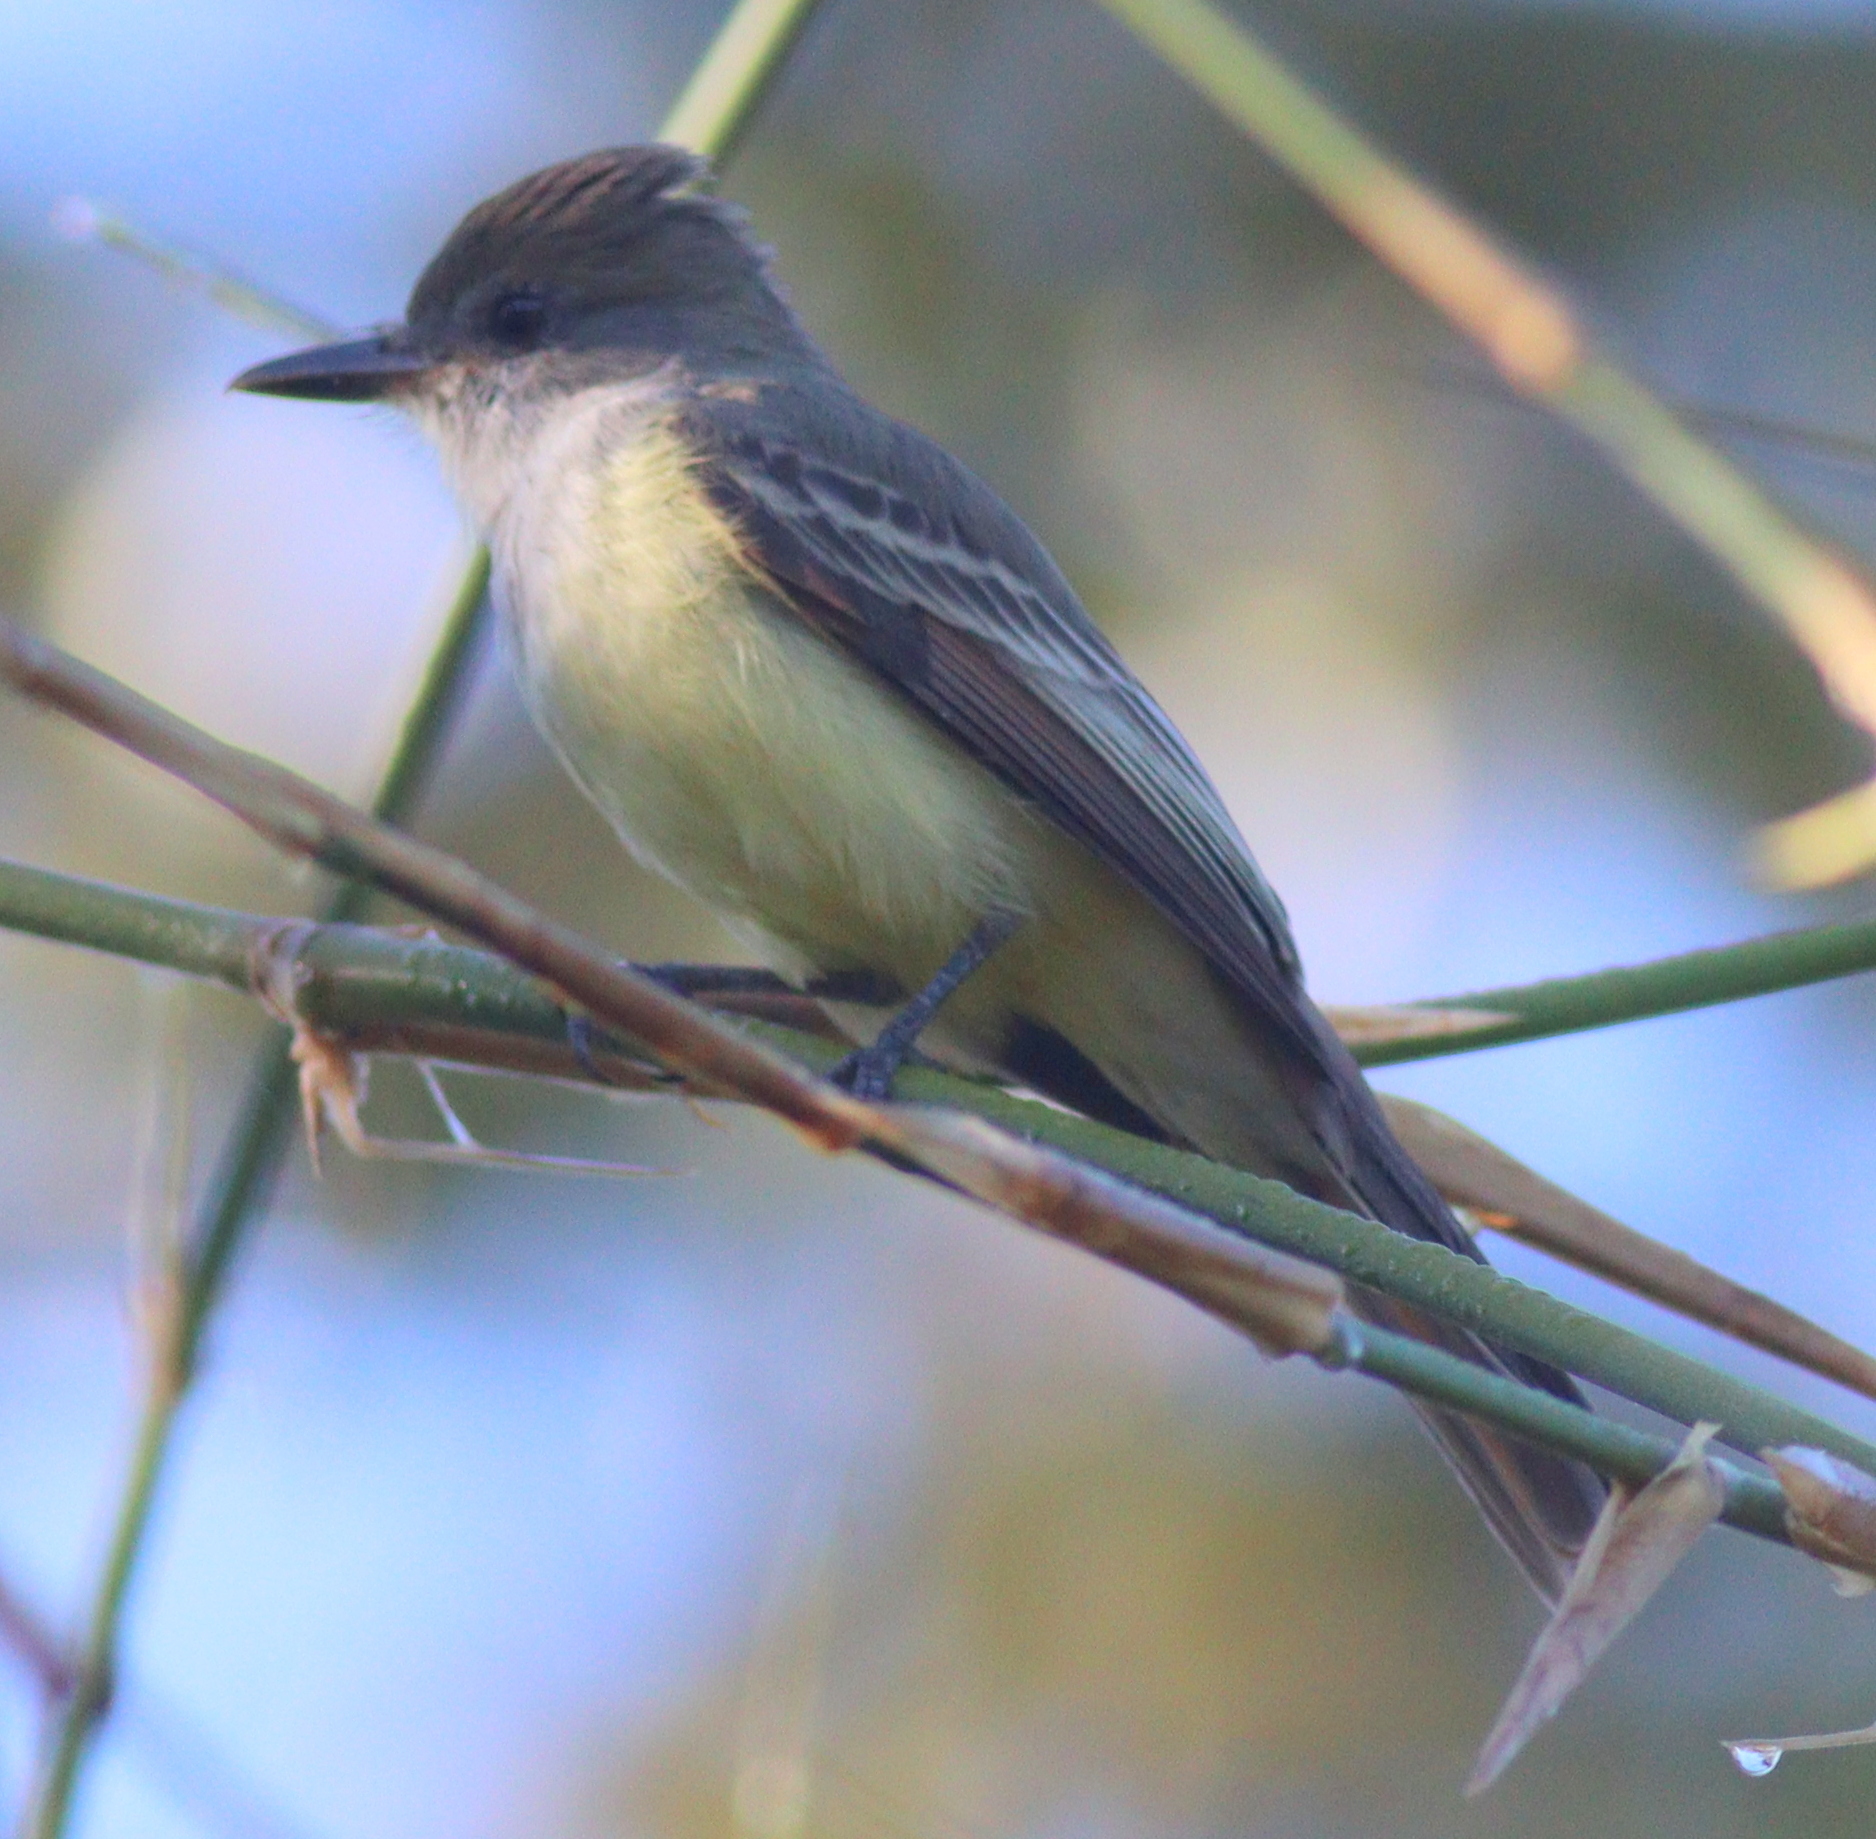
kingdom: Animalia
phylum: Chordata
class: Aves
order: Passeriformes
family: Tyrannidae
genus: Myiarchus
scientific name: Myiarchus tyrannulus
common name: Brown-crested flycatcher
